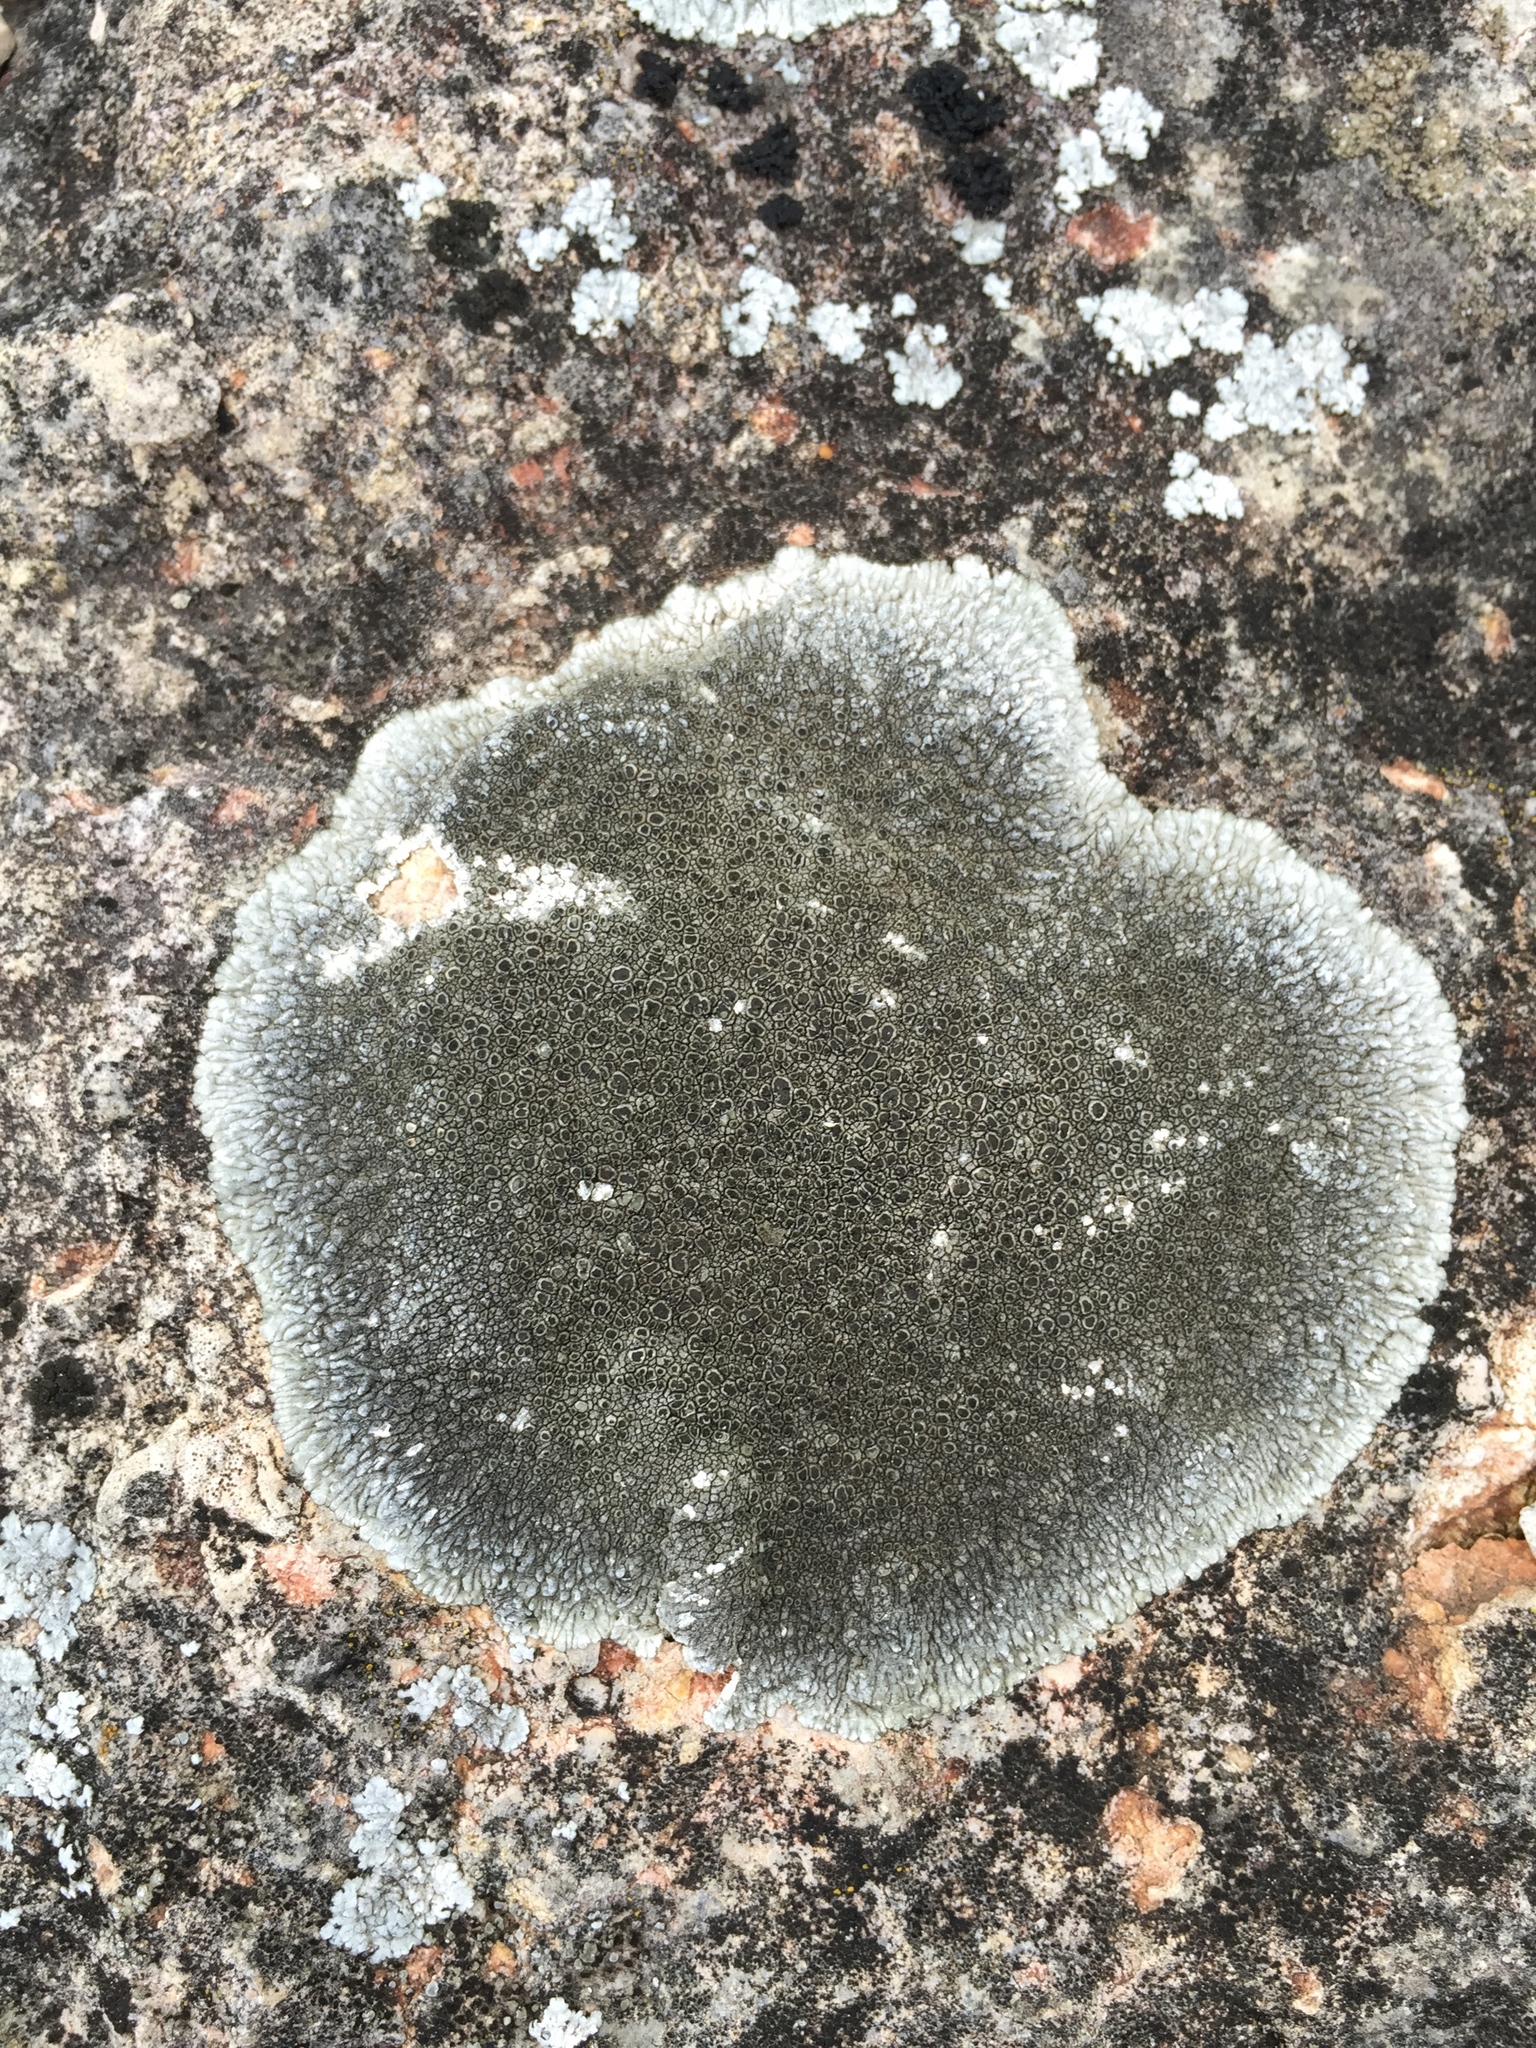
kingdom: Fungi
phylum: Ascomycota
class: Lecanoromycetes
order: Pertusariales
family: Megasporaceae
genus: Lobothallia
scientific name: Lobothallia radiosa
